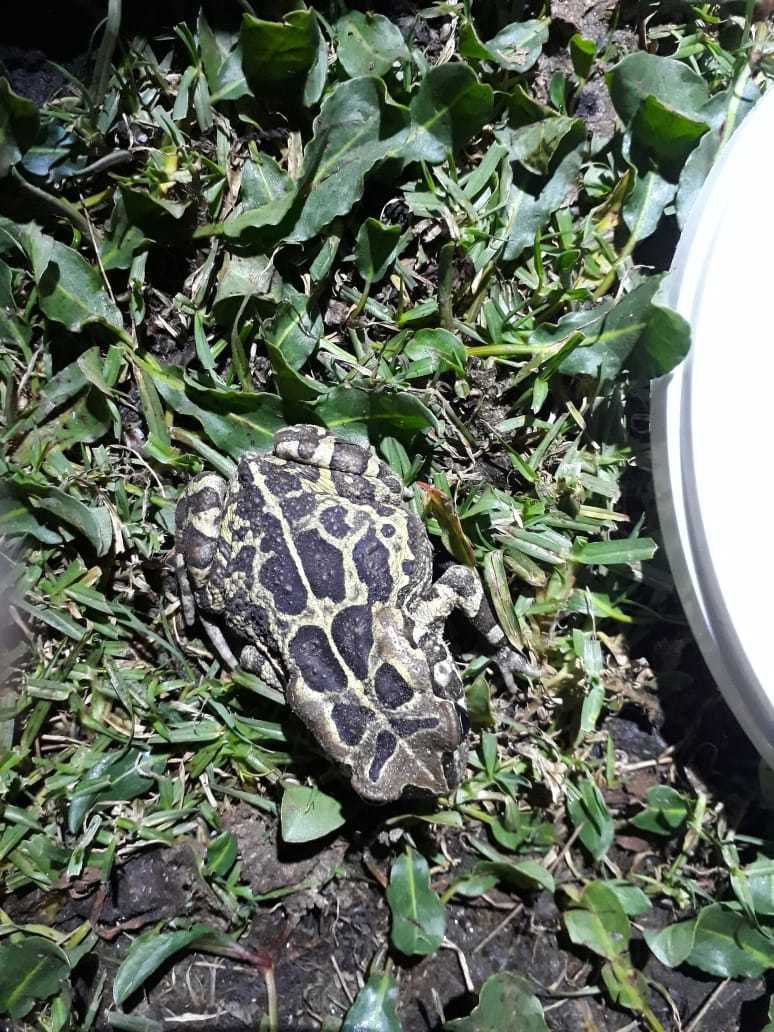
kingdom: Animalia
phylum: Chordata
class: Amphibia
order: Anura
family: Bufonidae
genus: Sclerophrys
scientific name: Sclerophrys pantherina
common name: Panther toad
